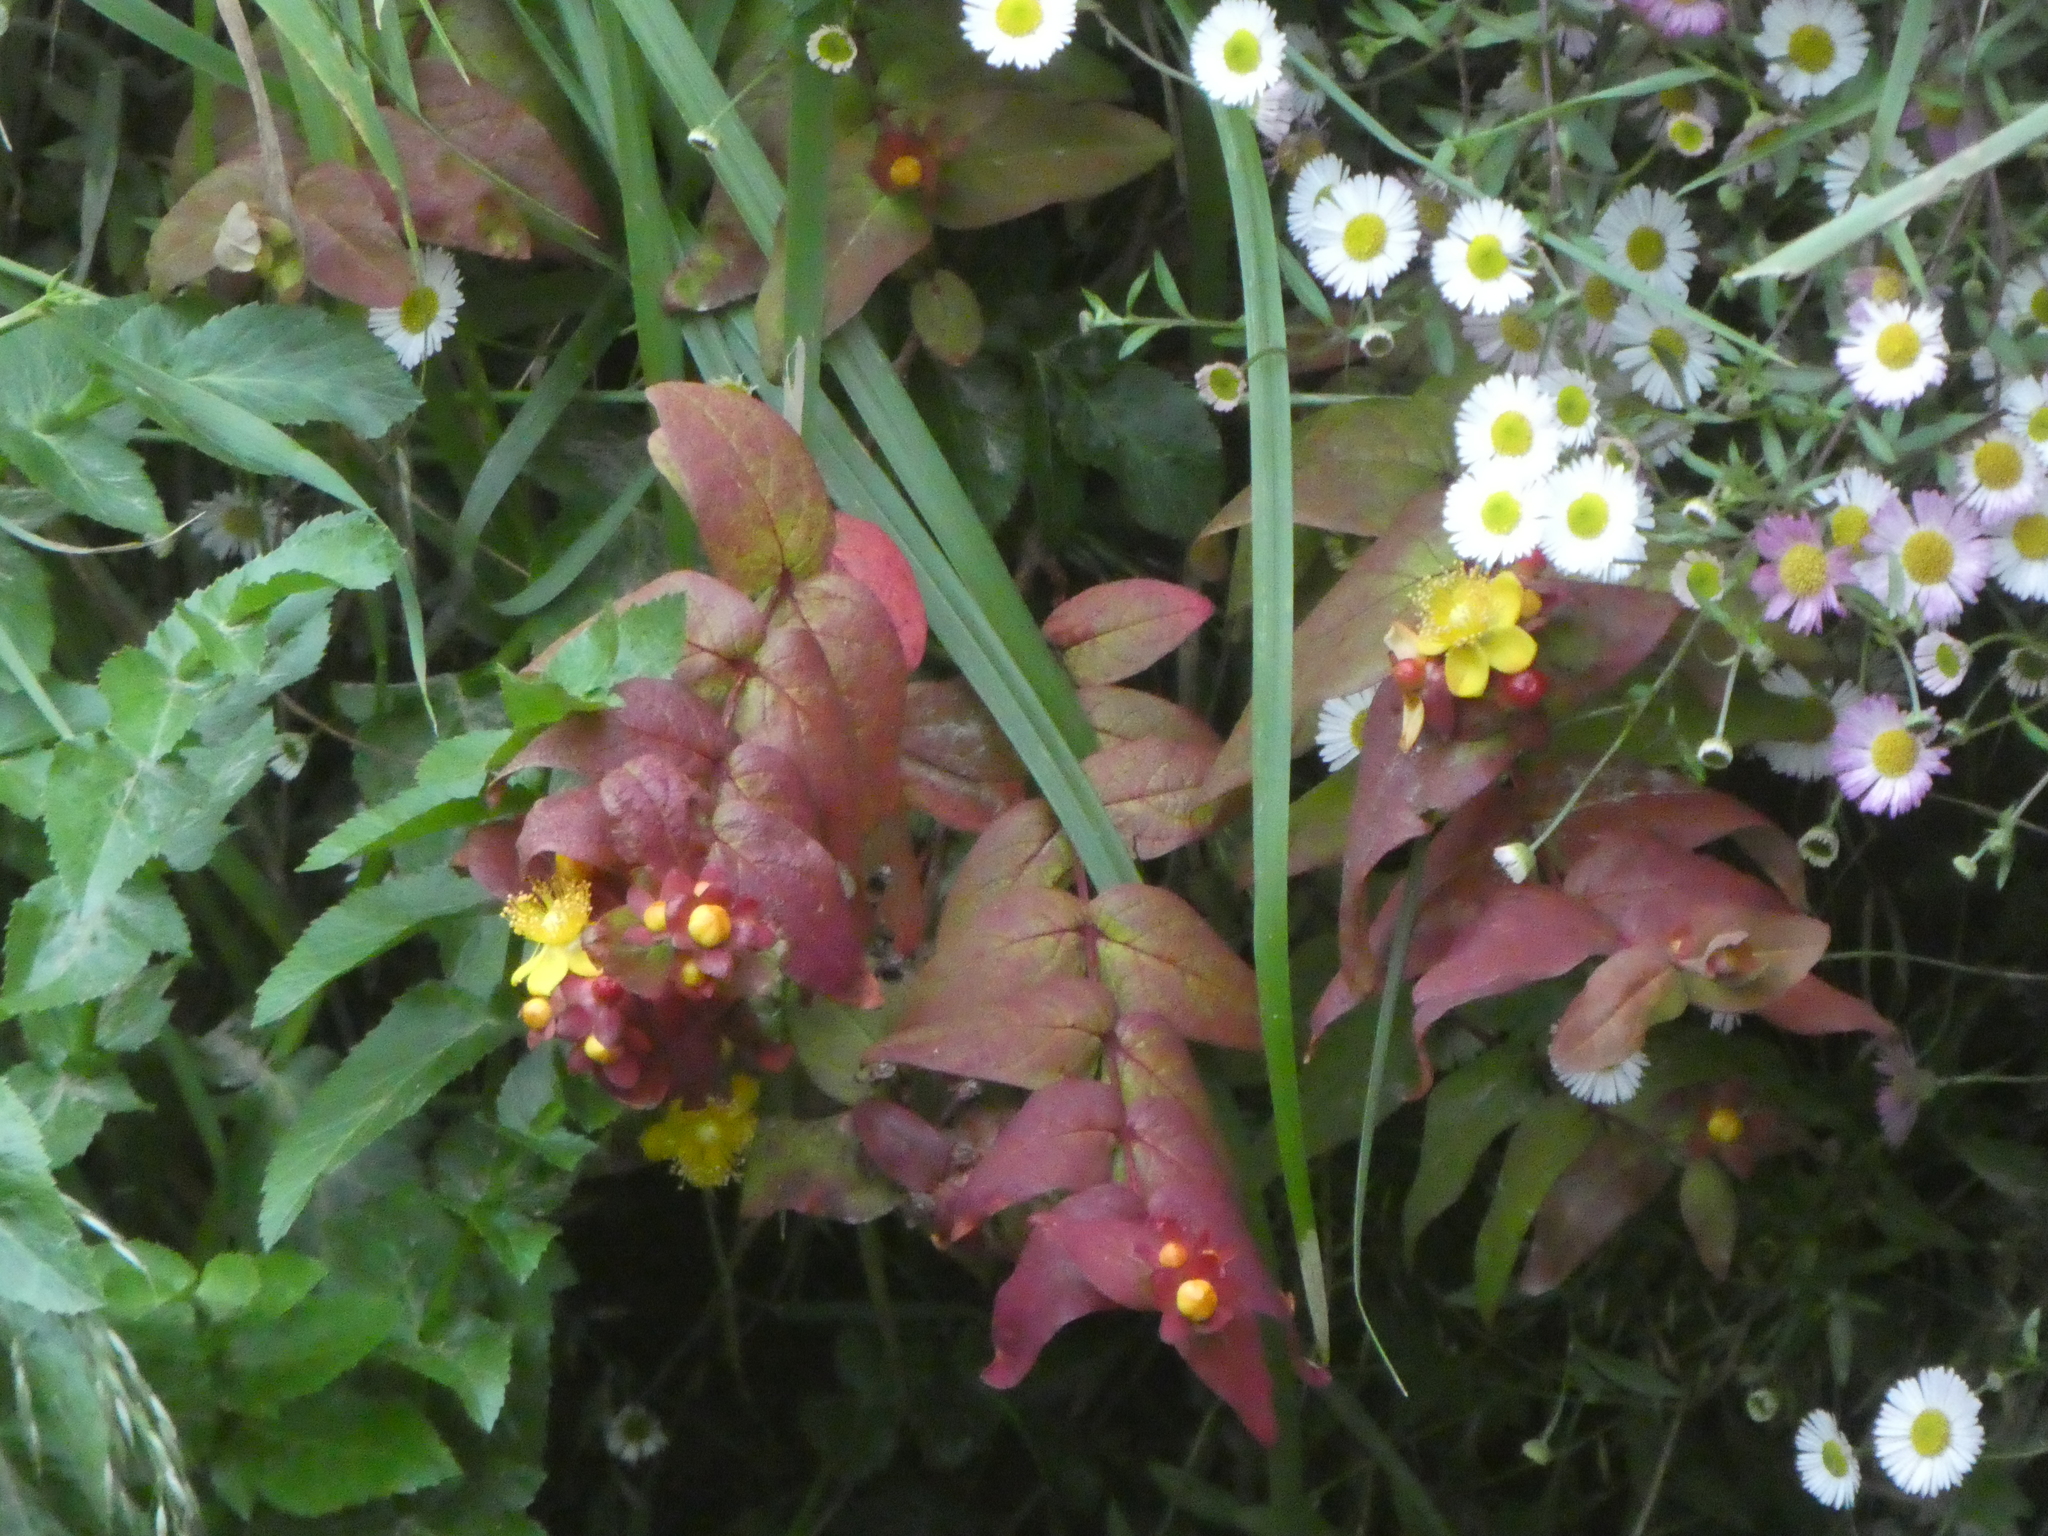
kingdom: Plantae
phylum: Tracheophyta
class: Magnoliopsida
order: Malpighiales
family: Hypericaceae
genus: Hypericum
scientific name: Hypericum androsaemum
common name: Sweet-amber
